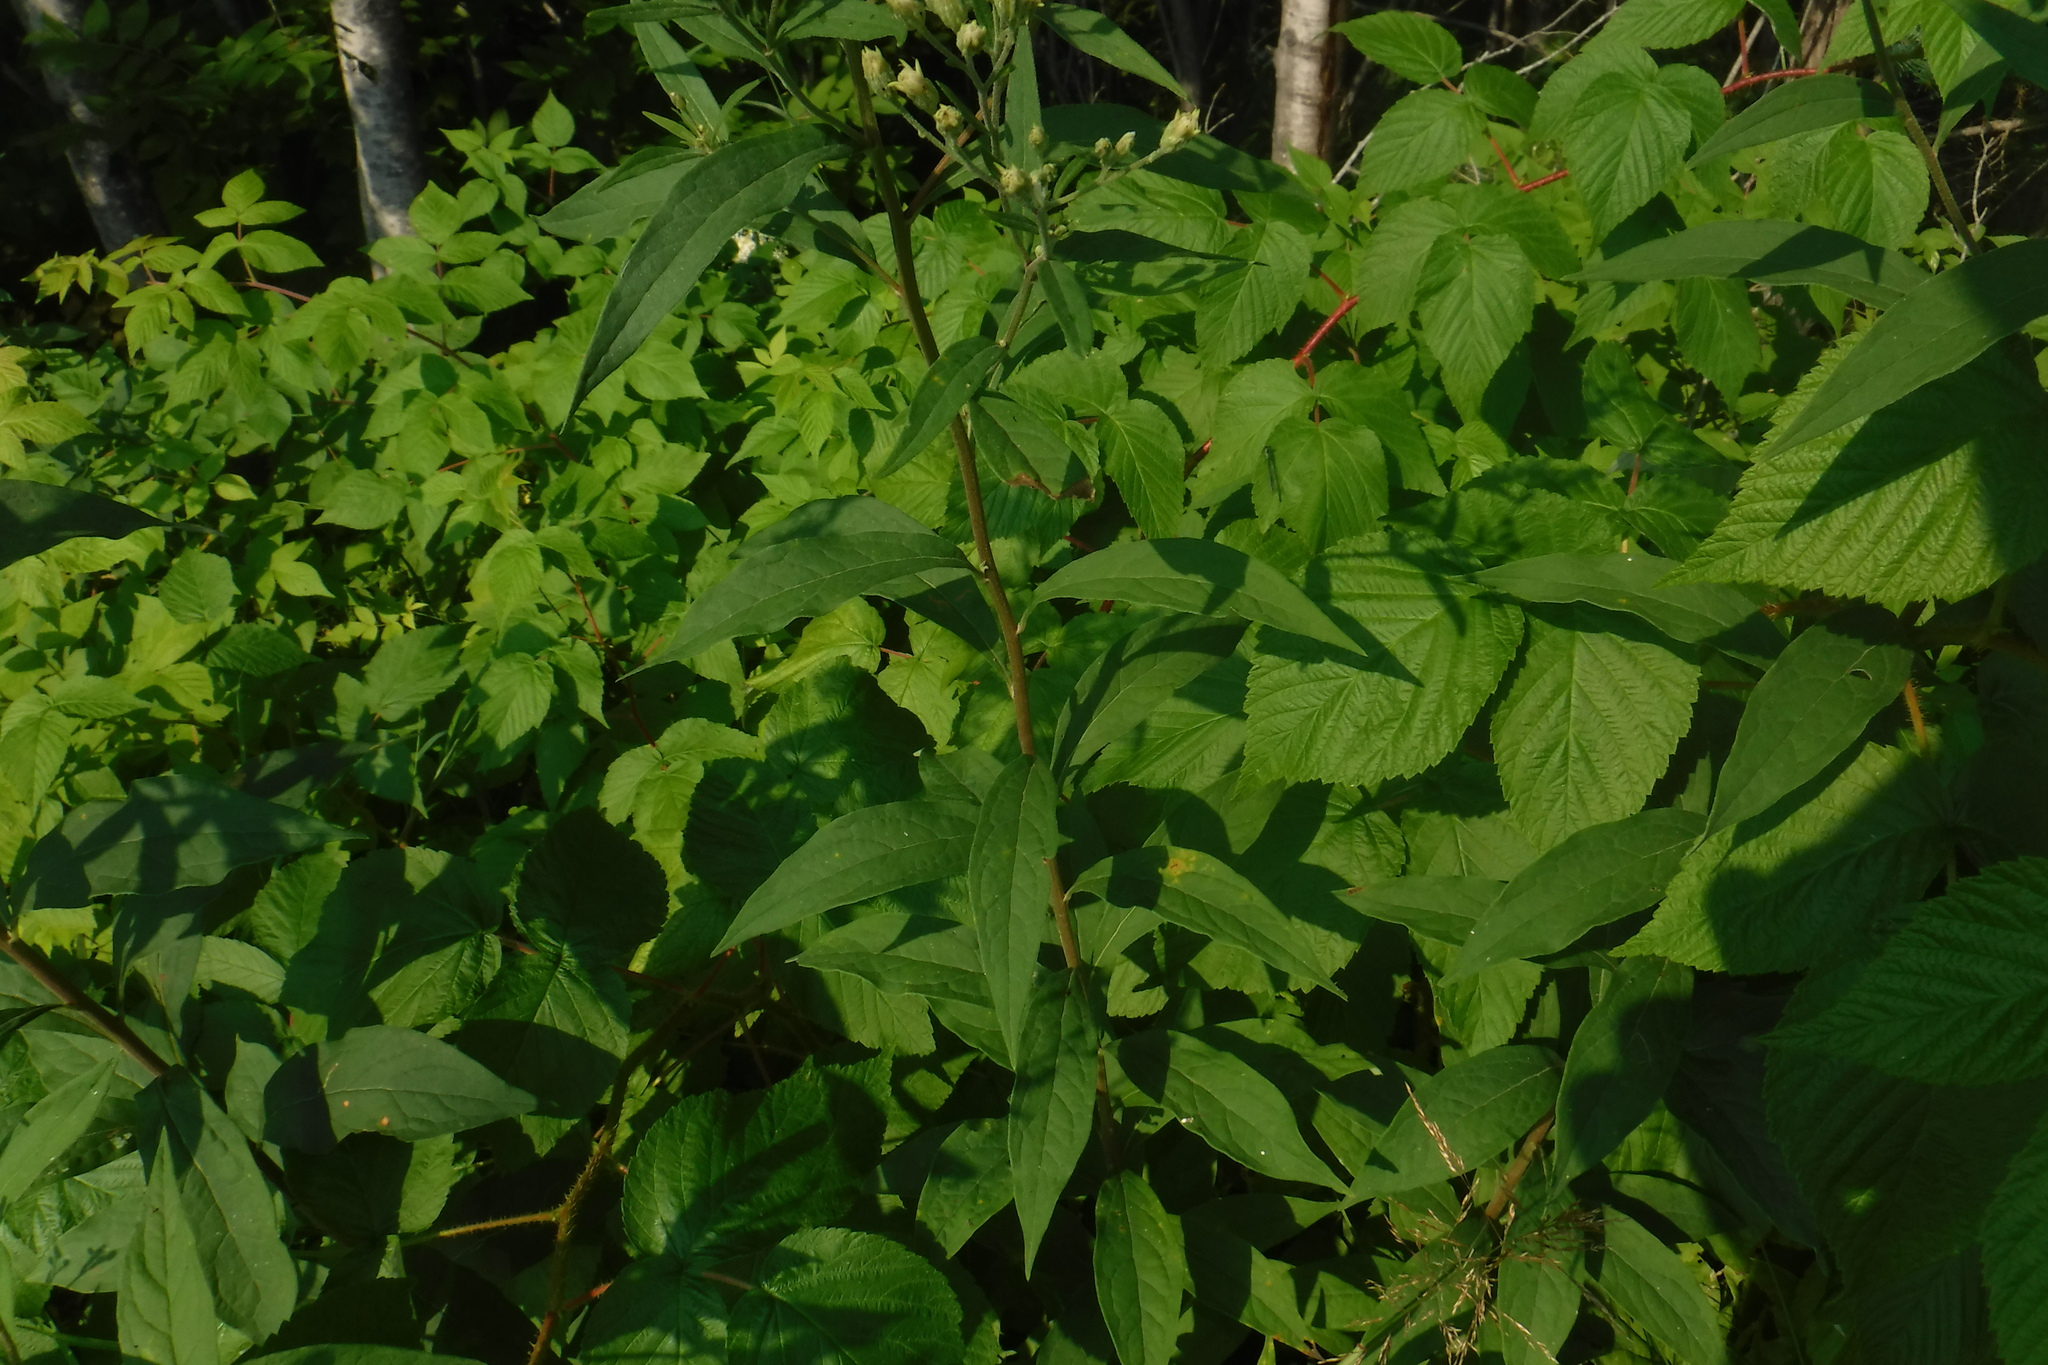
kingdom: Plantae
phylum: Tracheophyta
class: Magnoliopsida
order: Asterales
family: Asteraceae
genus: Doellingeria
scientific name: Doellingeria umbellata
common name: Flat-top white aster
